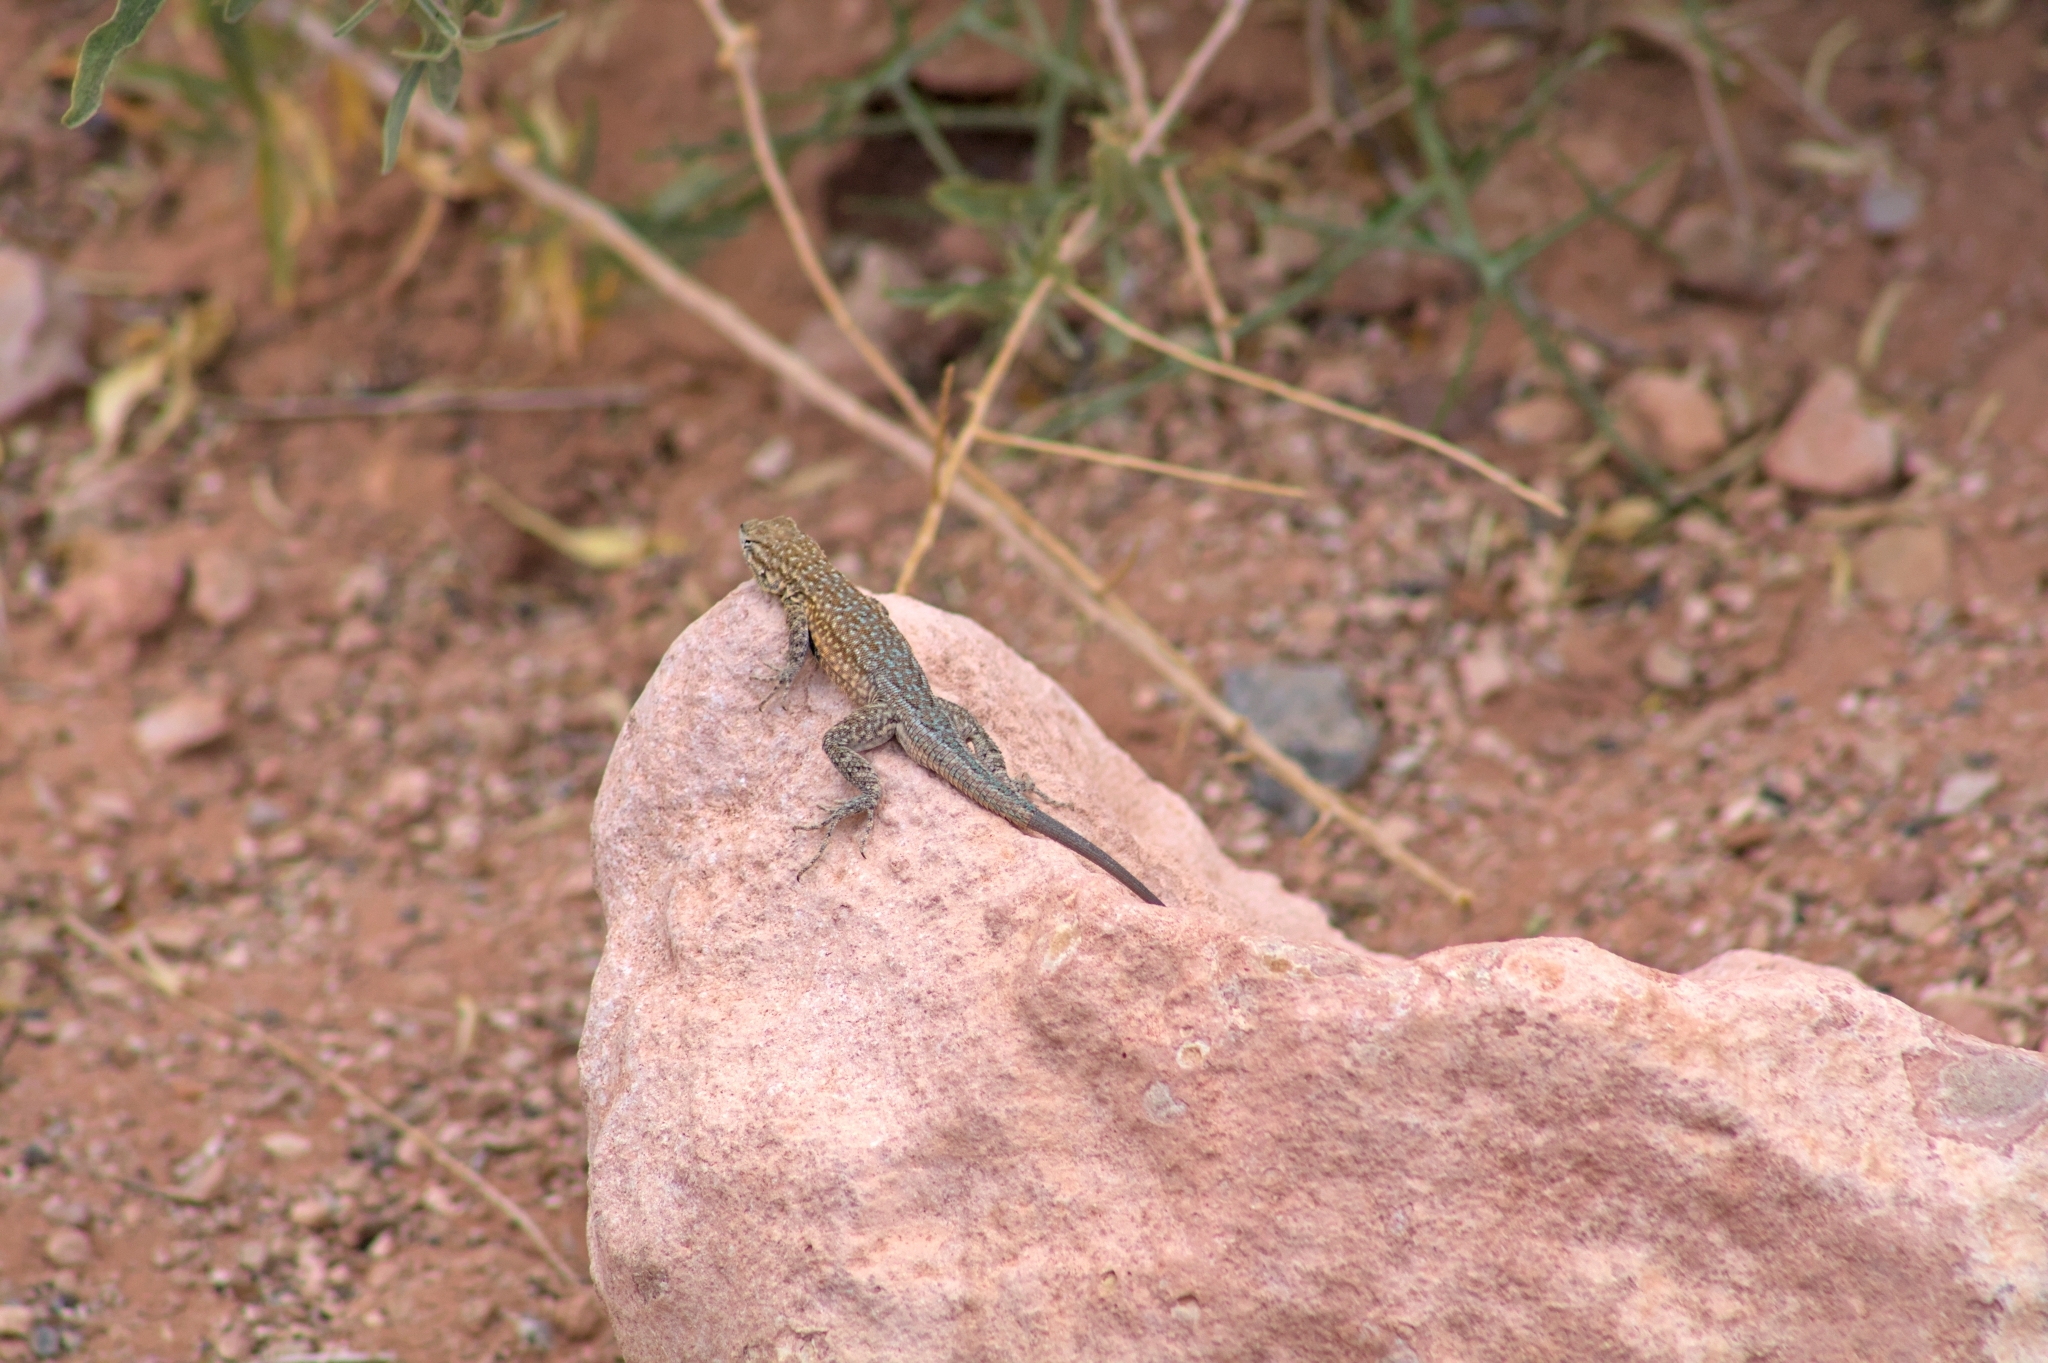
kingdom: Animalia
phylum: Chordata
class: Squamata
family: Phrynosomatidae
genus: Uta
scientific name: Uta stansburiana
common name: Side-blotched lizard
